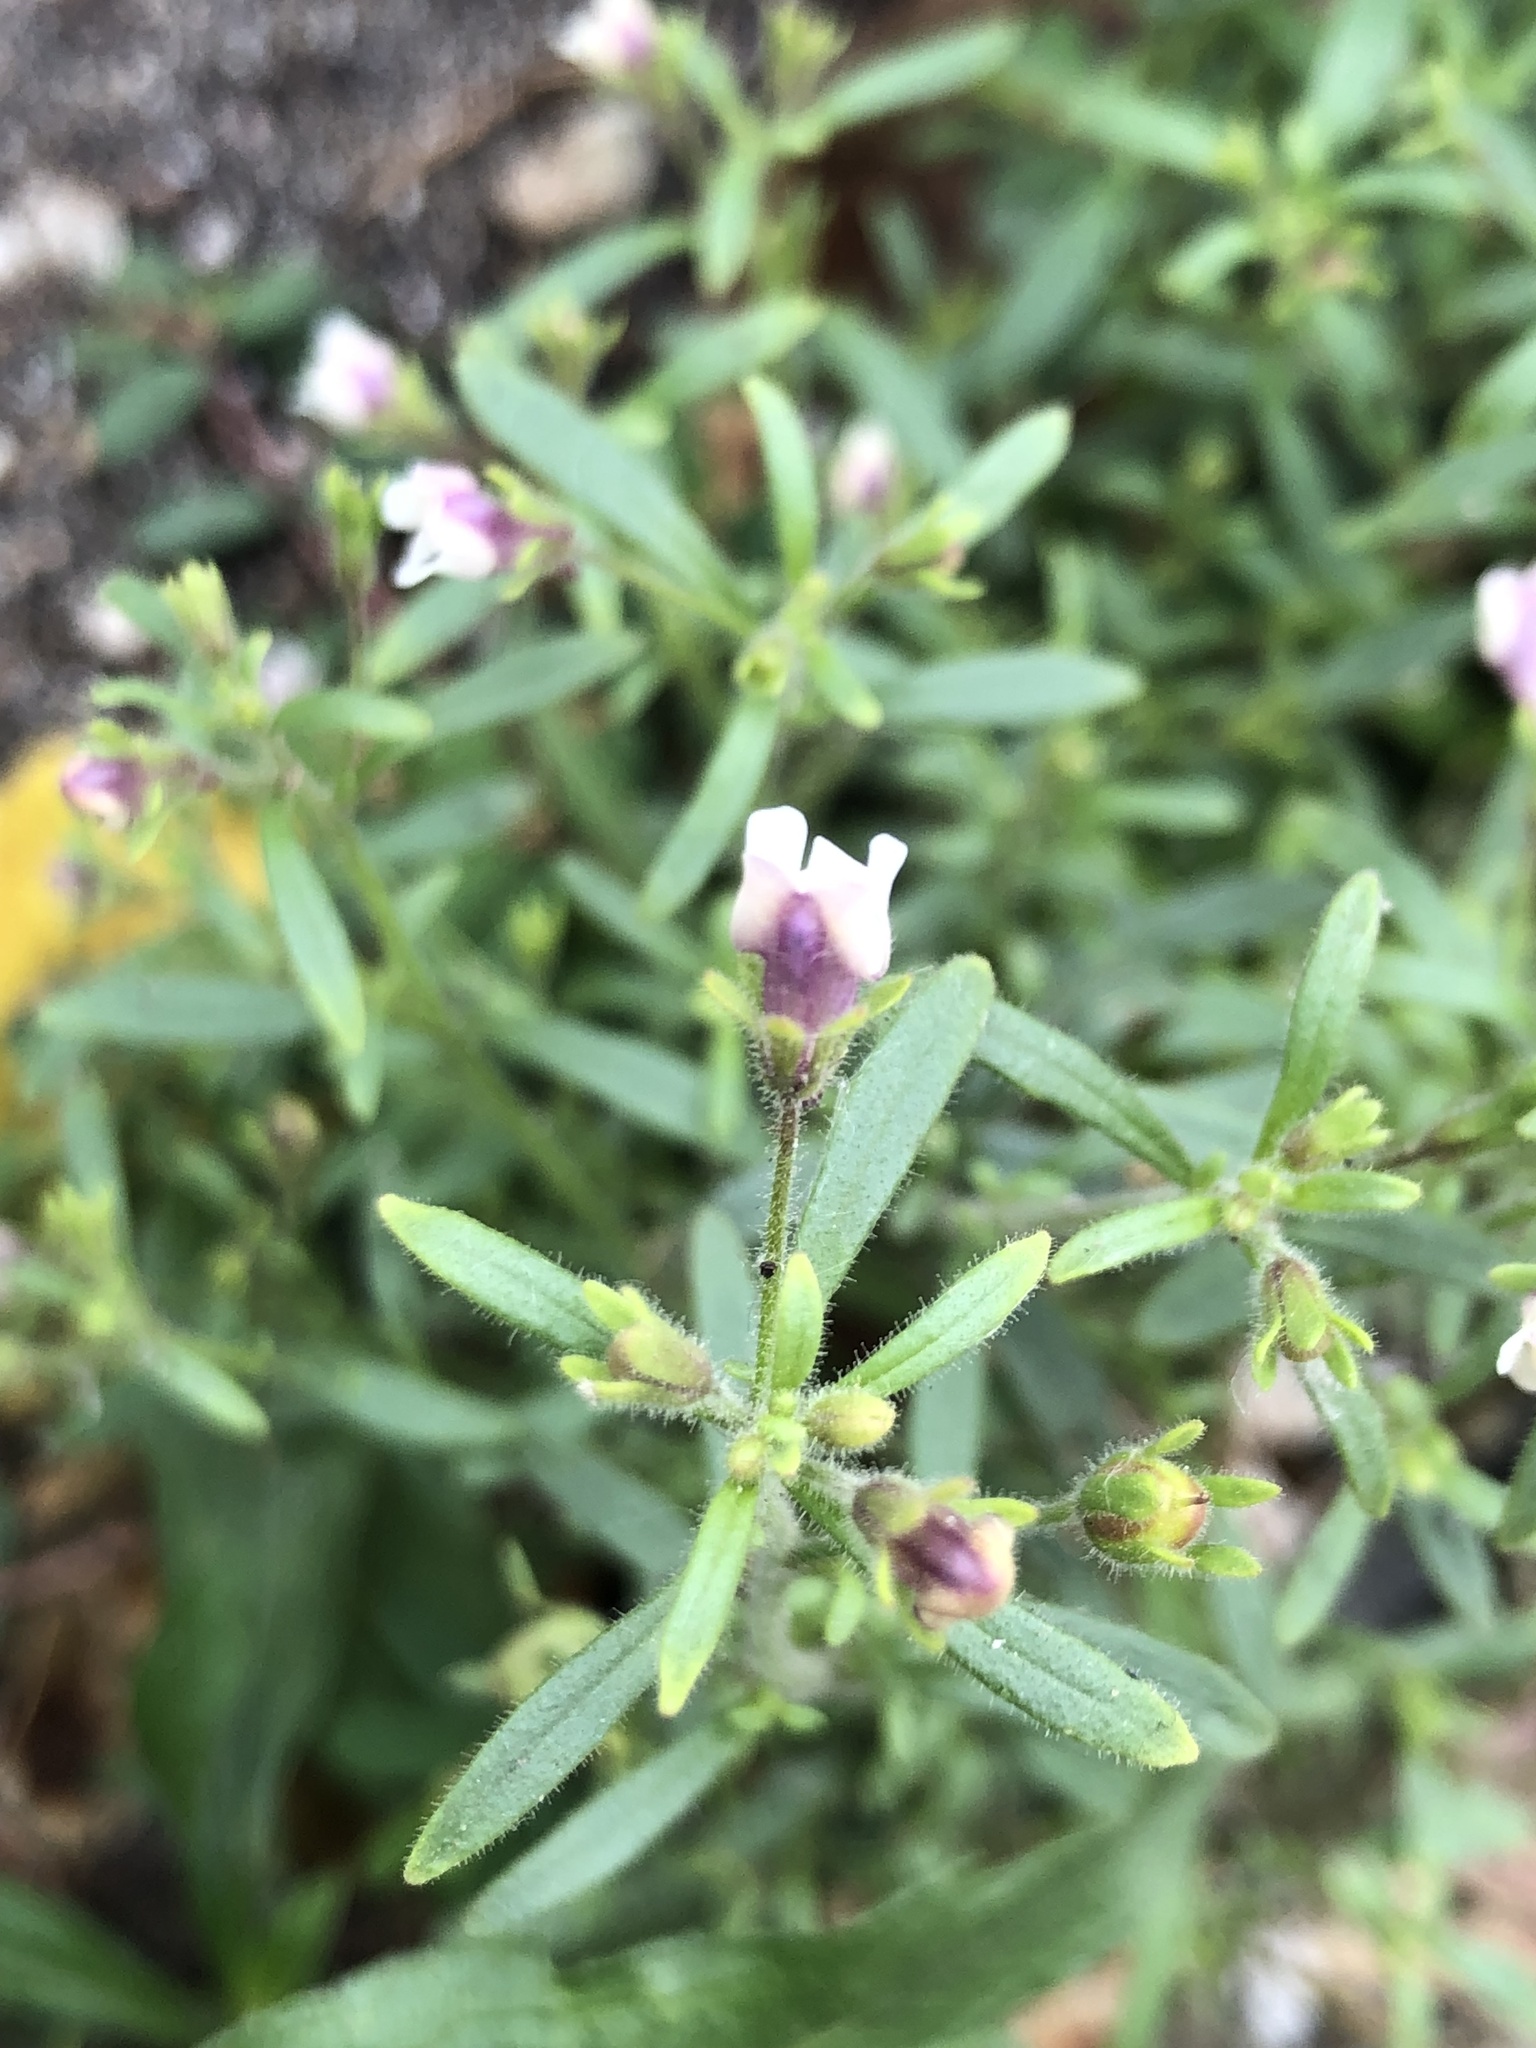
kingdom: Plantae
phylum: Tracheophyta
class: Magnoliopsida
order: Lamiales
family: Plantaginaceae
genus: Chaenorhinum
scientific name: Chaenorhinum minus
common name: Dwarf snapdragon
